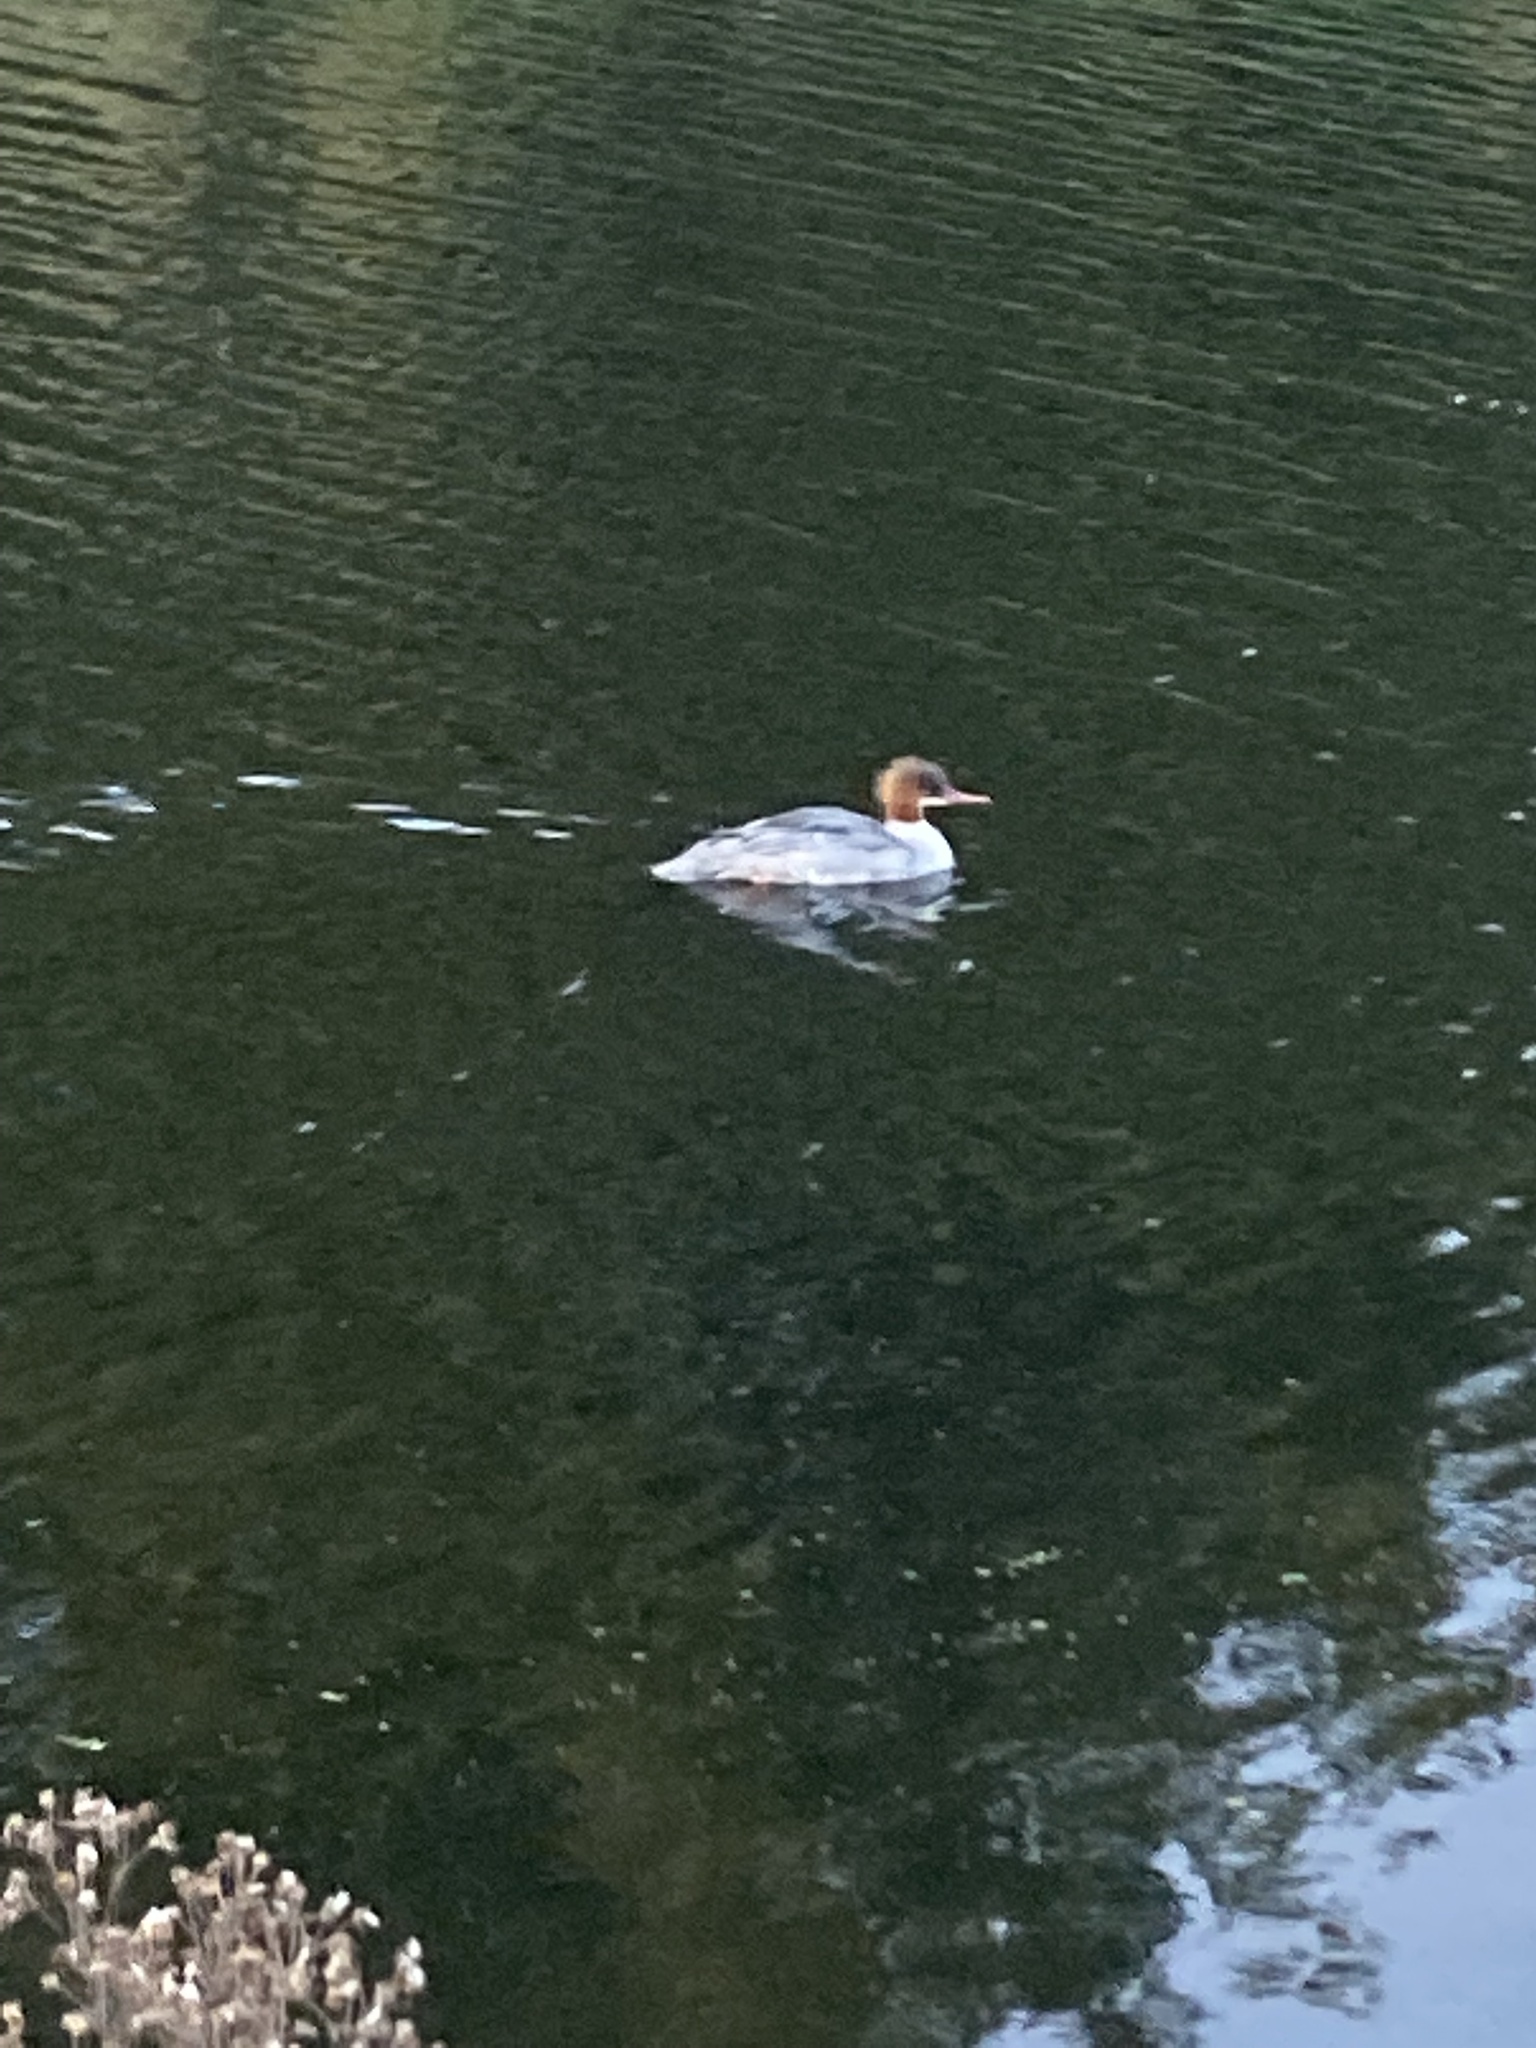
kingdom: Animalia
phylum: Chordata
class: Aves
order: Anseriformes
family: Anatidae
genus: Mergus
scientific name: Mergus merganser
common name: Common merganser
